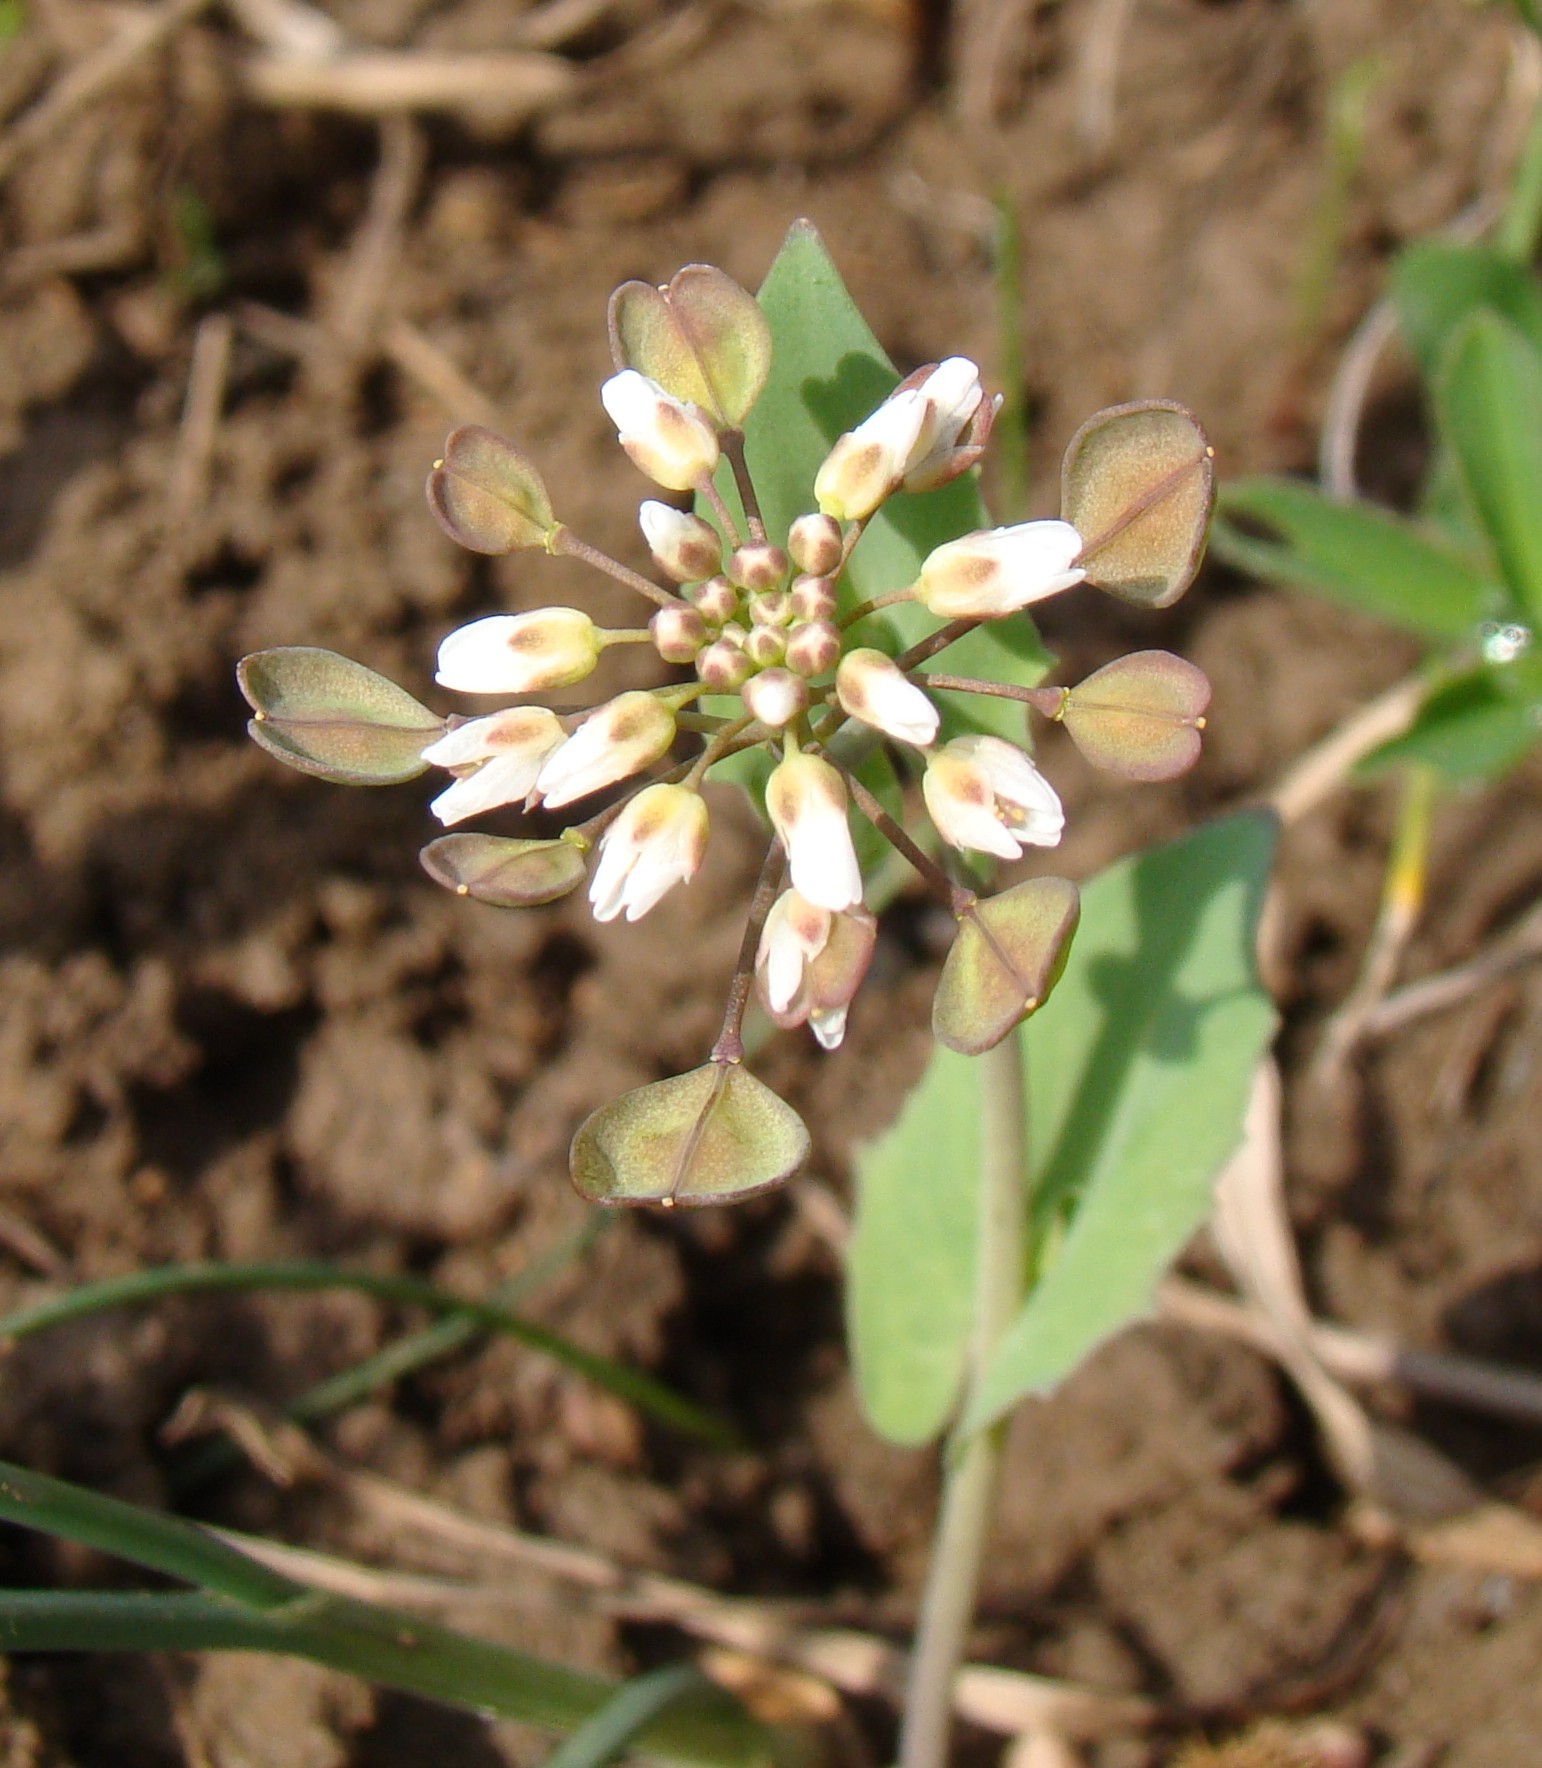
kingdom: Plantae
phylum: Tracheophyta
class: Magnoliopsida
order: Brassicales
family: Brassicaceae
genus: Noccaea
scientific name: Noccaea perfoliata
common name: Perfoliate pennycress
